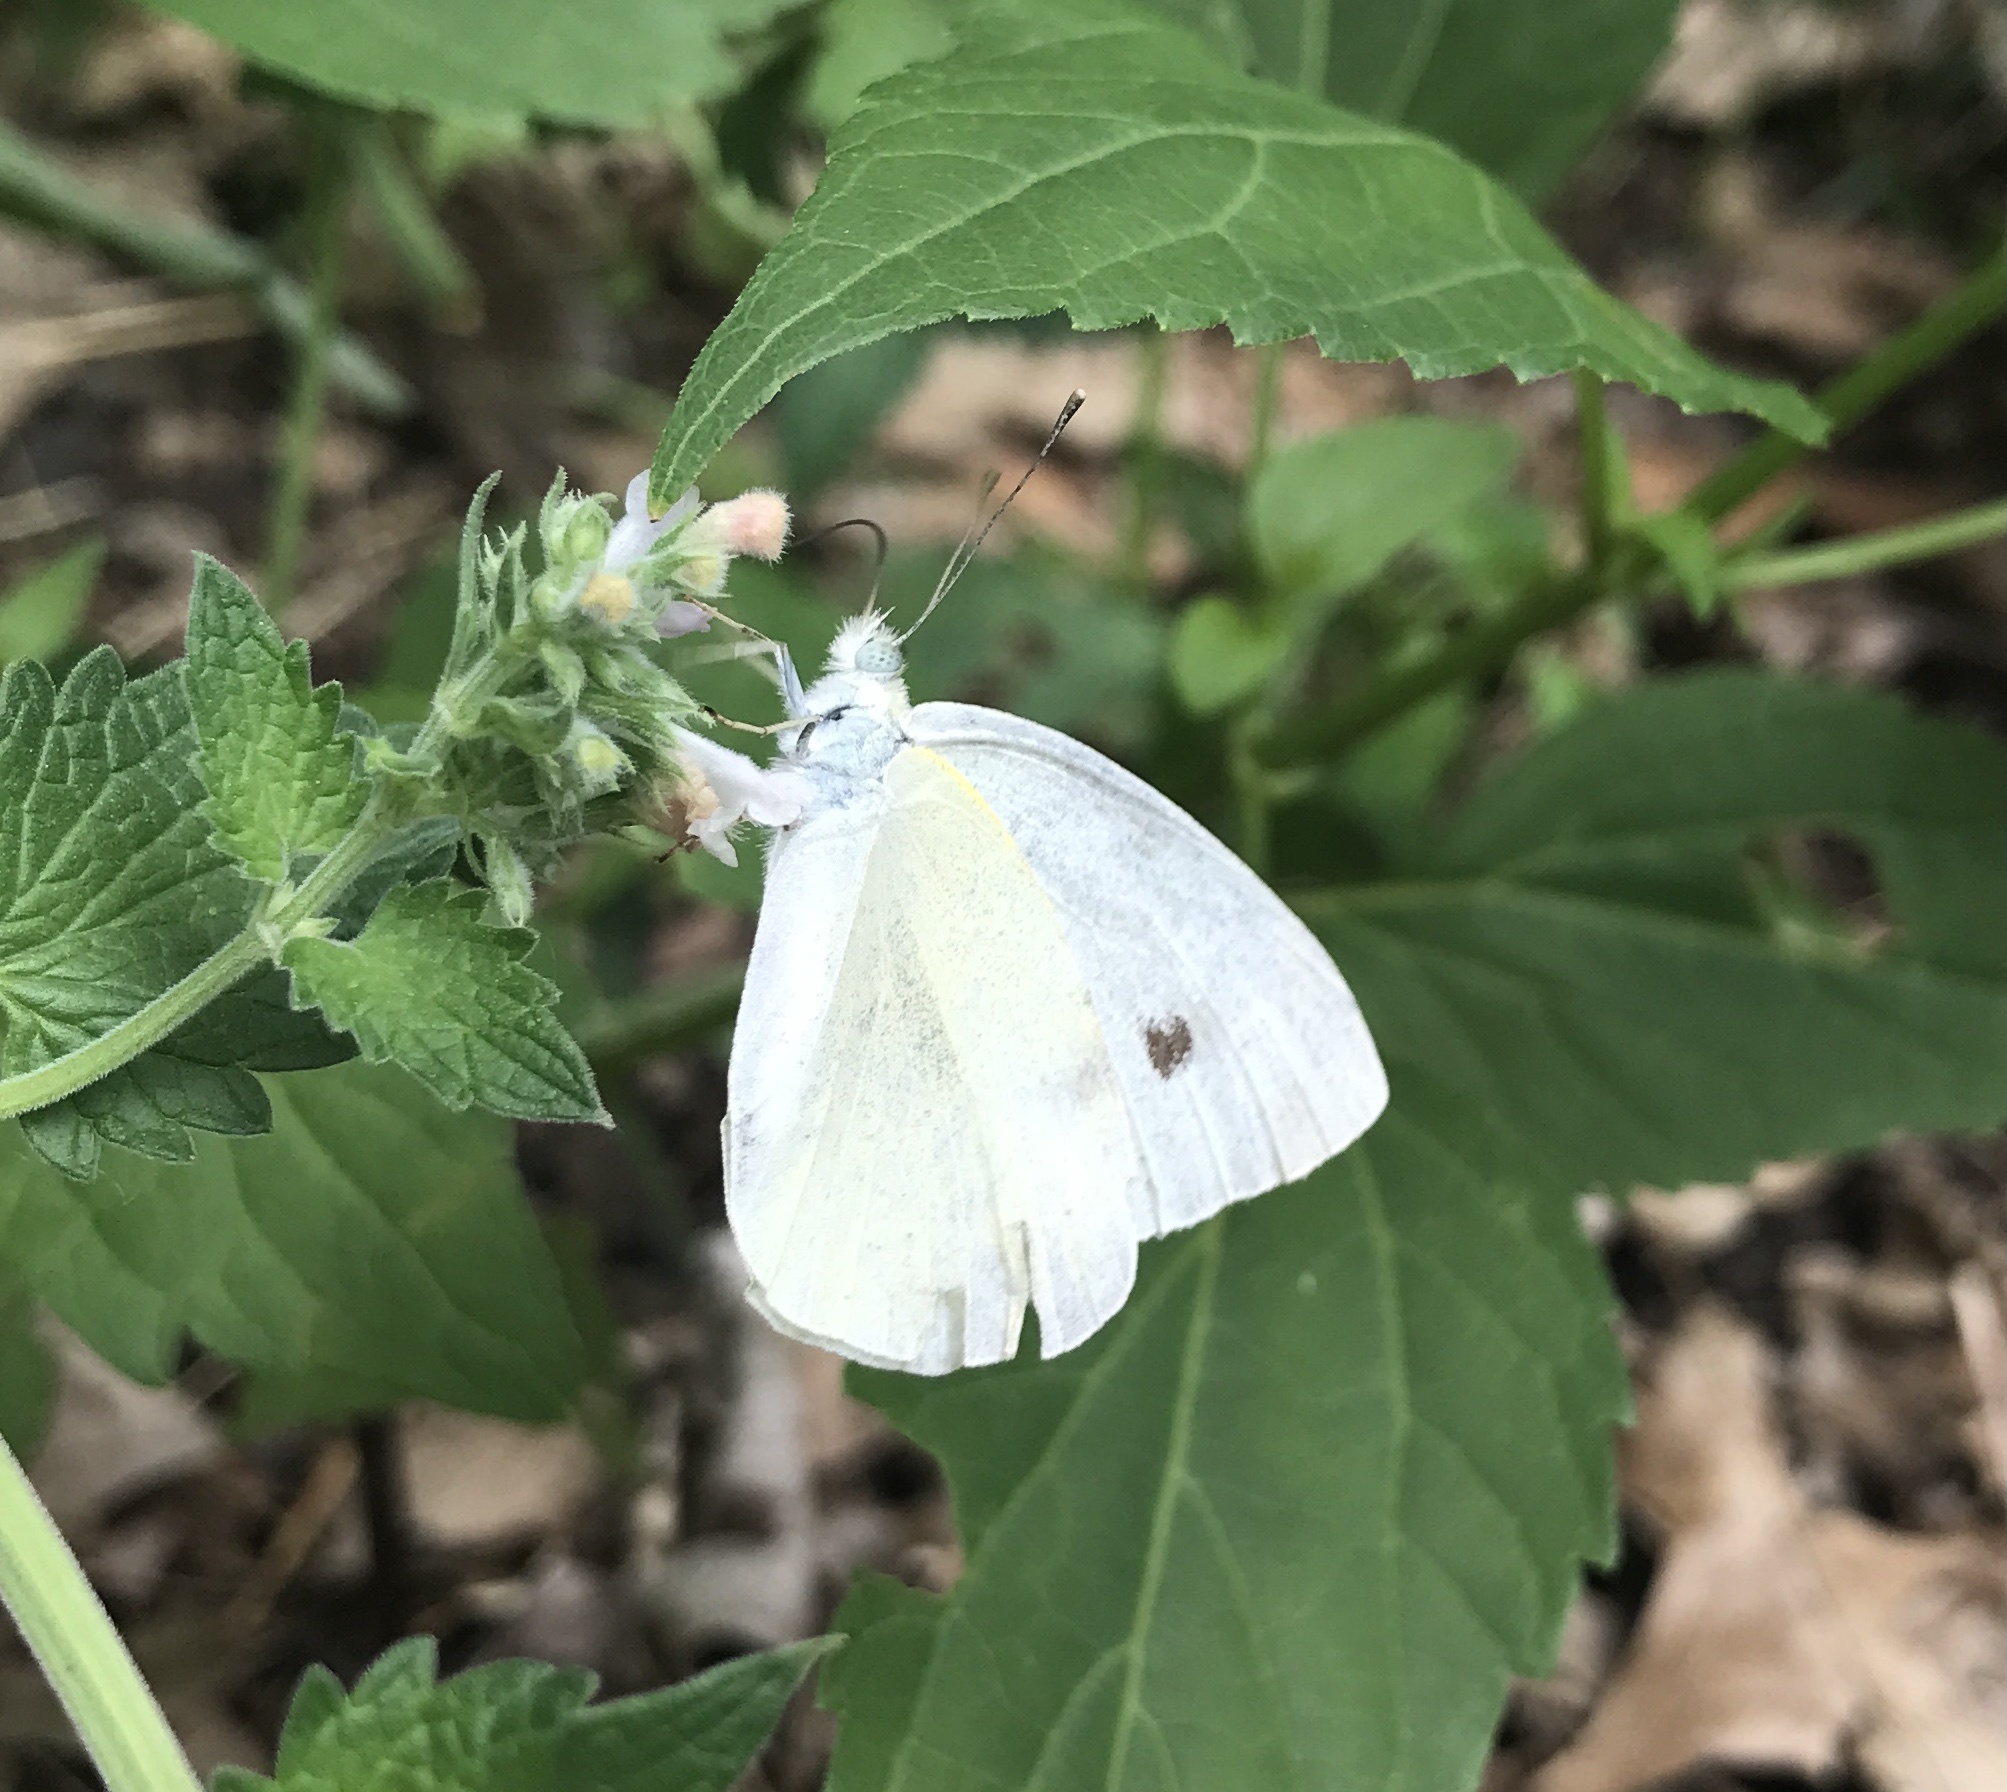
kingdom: Animalia
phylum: Arthropoda
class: Insecta
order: Lepidoptera
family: Pieridae
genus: Pieris
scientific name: Pieris rapae
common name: Small white
